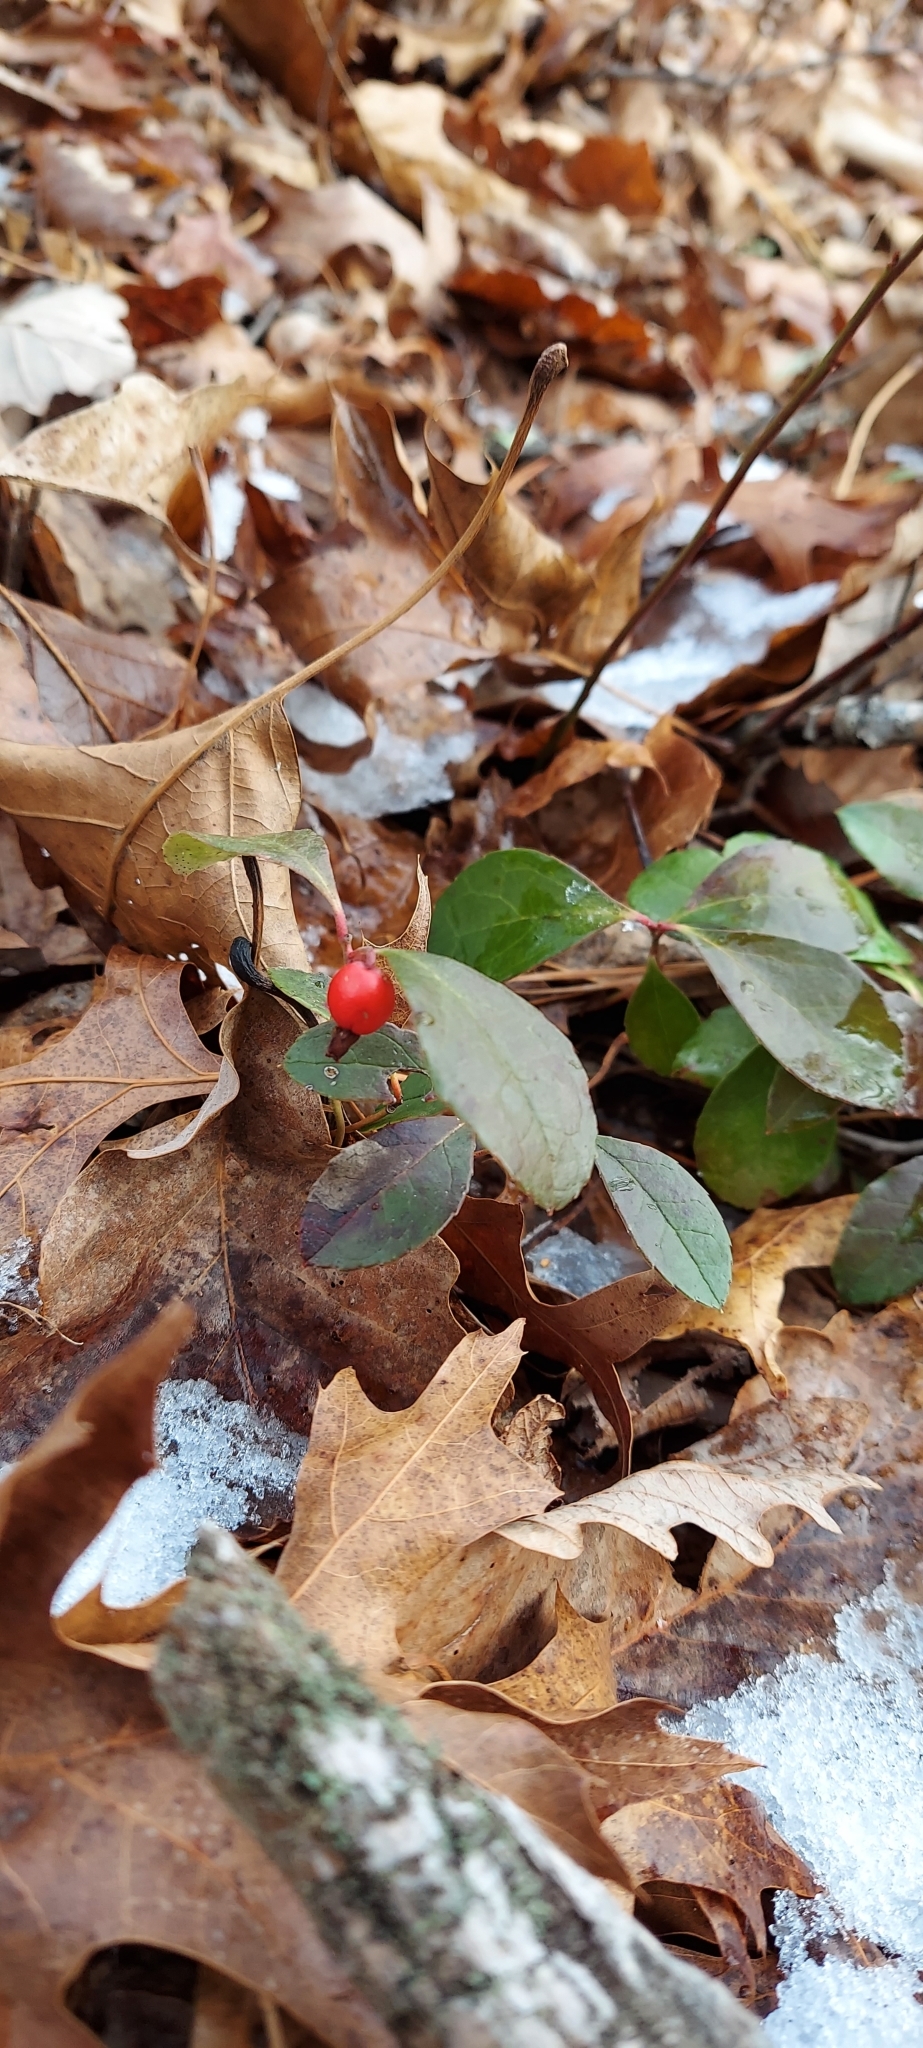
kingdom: Plantae
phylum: Tracheophyta
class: Magnoliopsida
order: Ericales
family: Ericaceae
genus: Gaultheria
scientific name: Gaultheria procumbens
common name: Checkerberry
